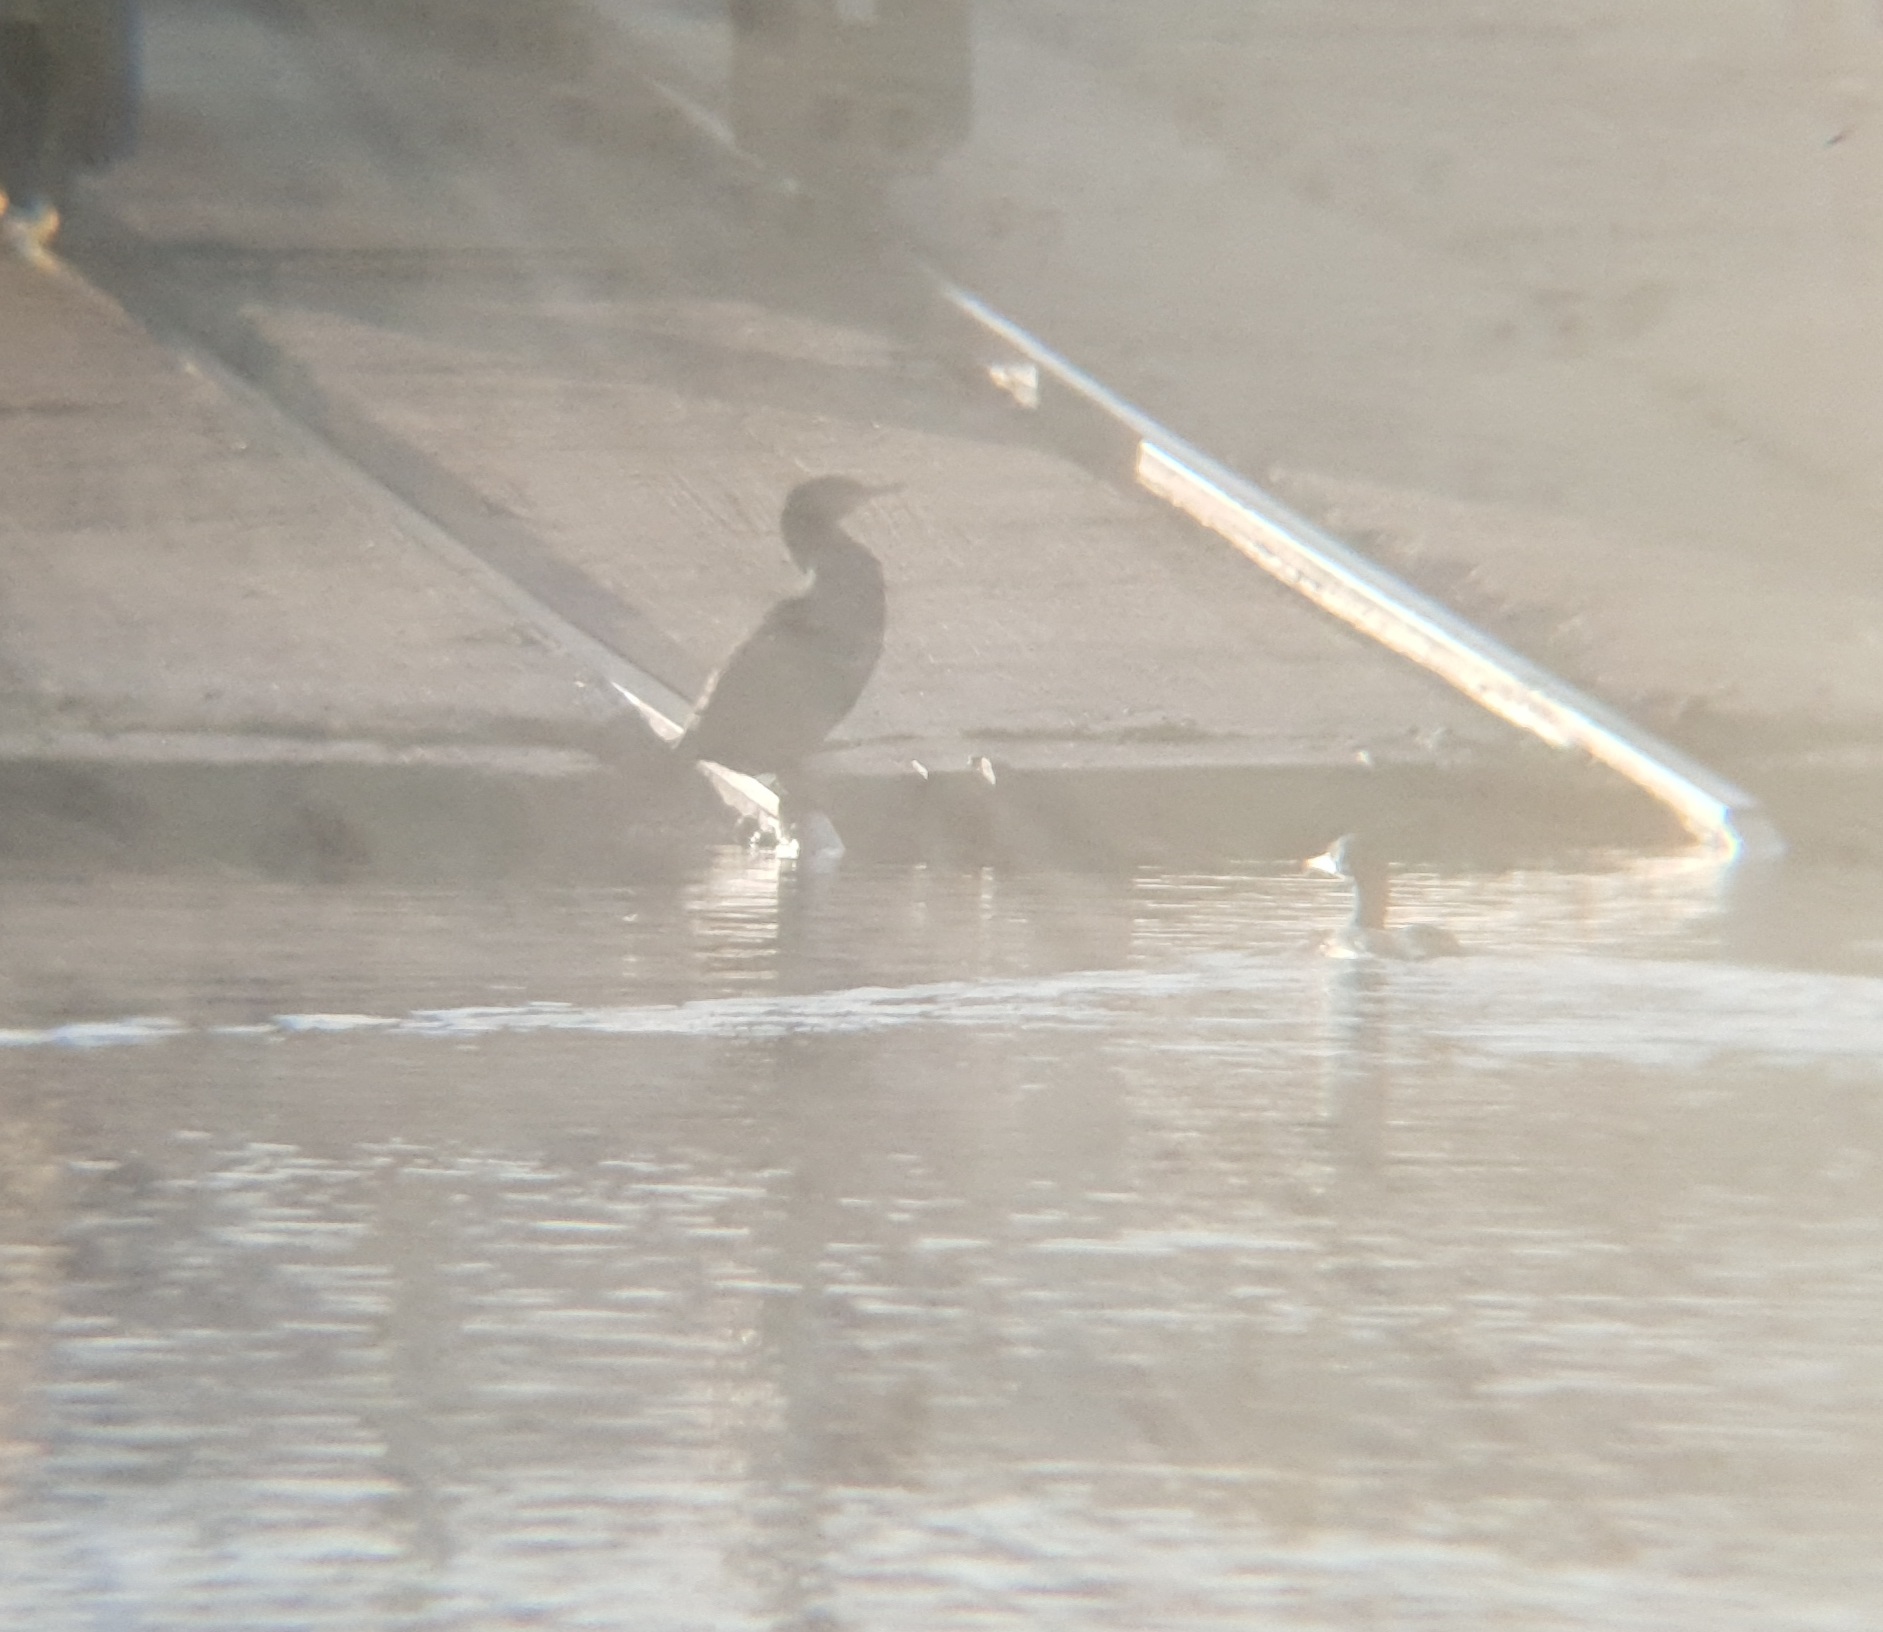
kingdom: Animalia
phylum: Chordata
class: Aves
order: Suliformes
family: Phalacrocoracidae
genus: Phalacrocorax
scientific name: Phalacrocorax carbo
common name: Great cormorant
